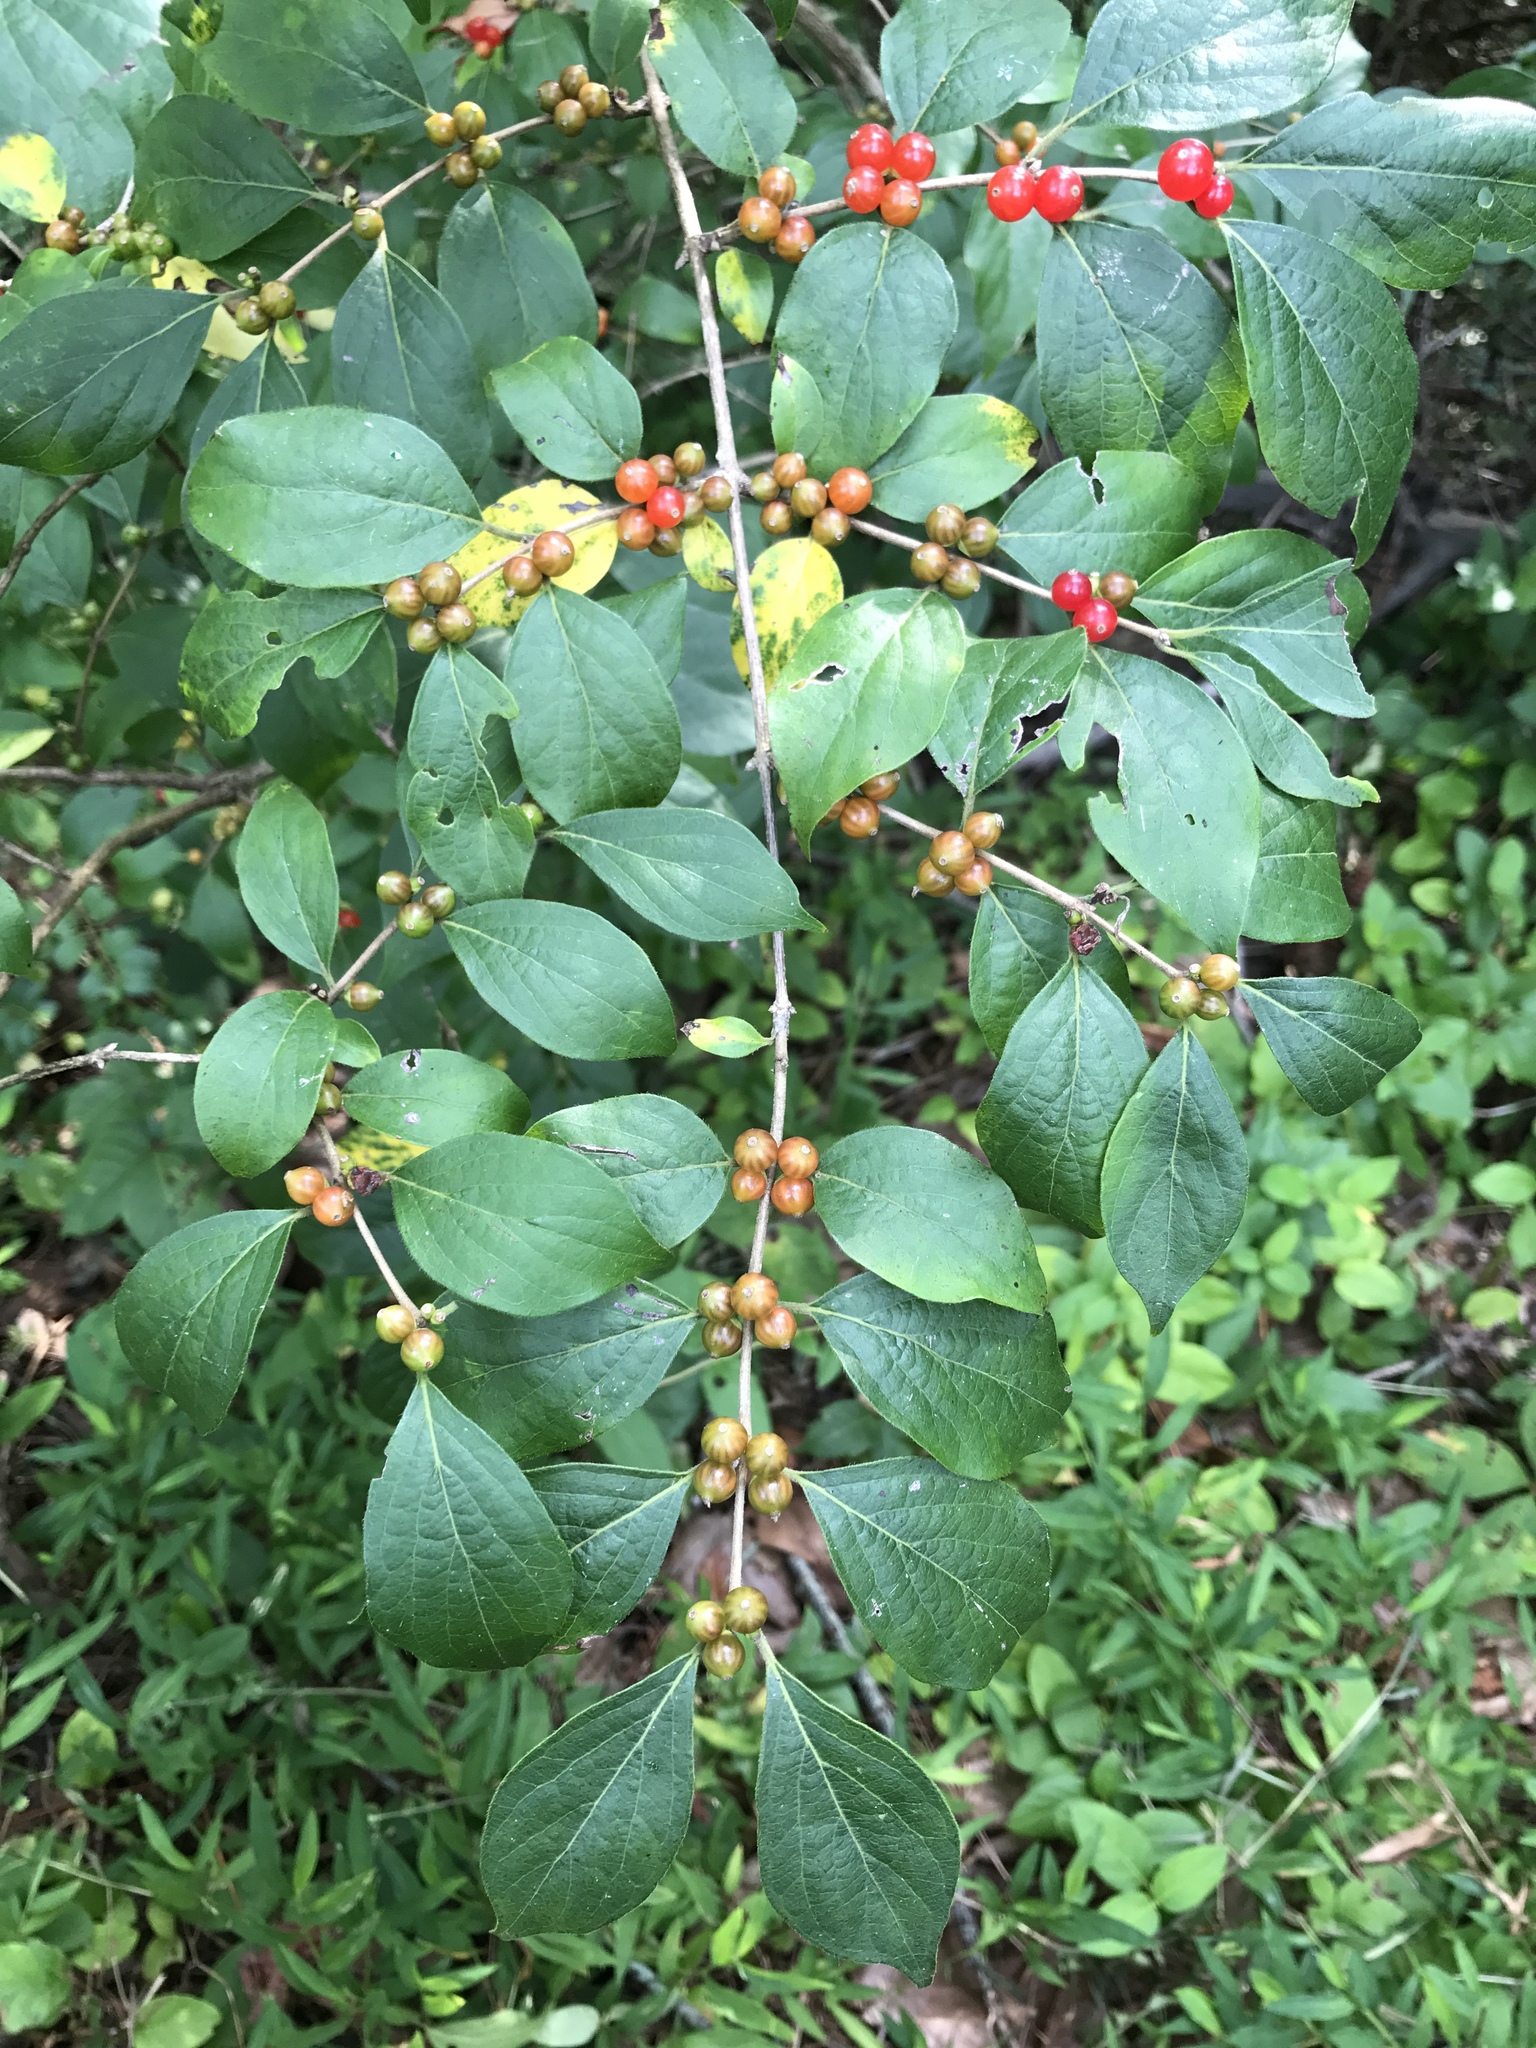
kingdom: Plantae
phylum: Tracheophyta
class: Magnoliopsida
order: Dipsacales
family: Caprifoliaceae
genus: Lonicera
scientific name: Lonicera maackii
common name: Amur honeysuckle
